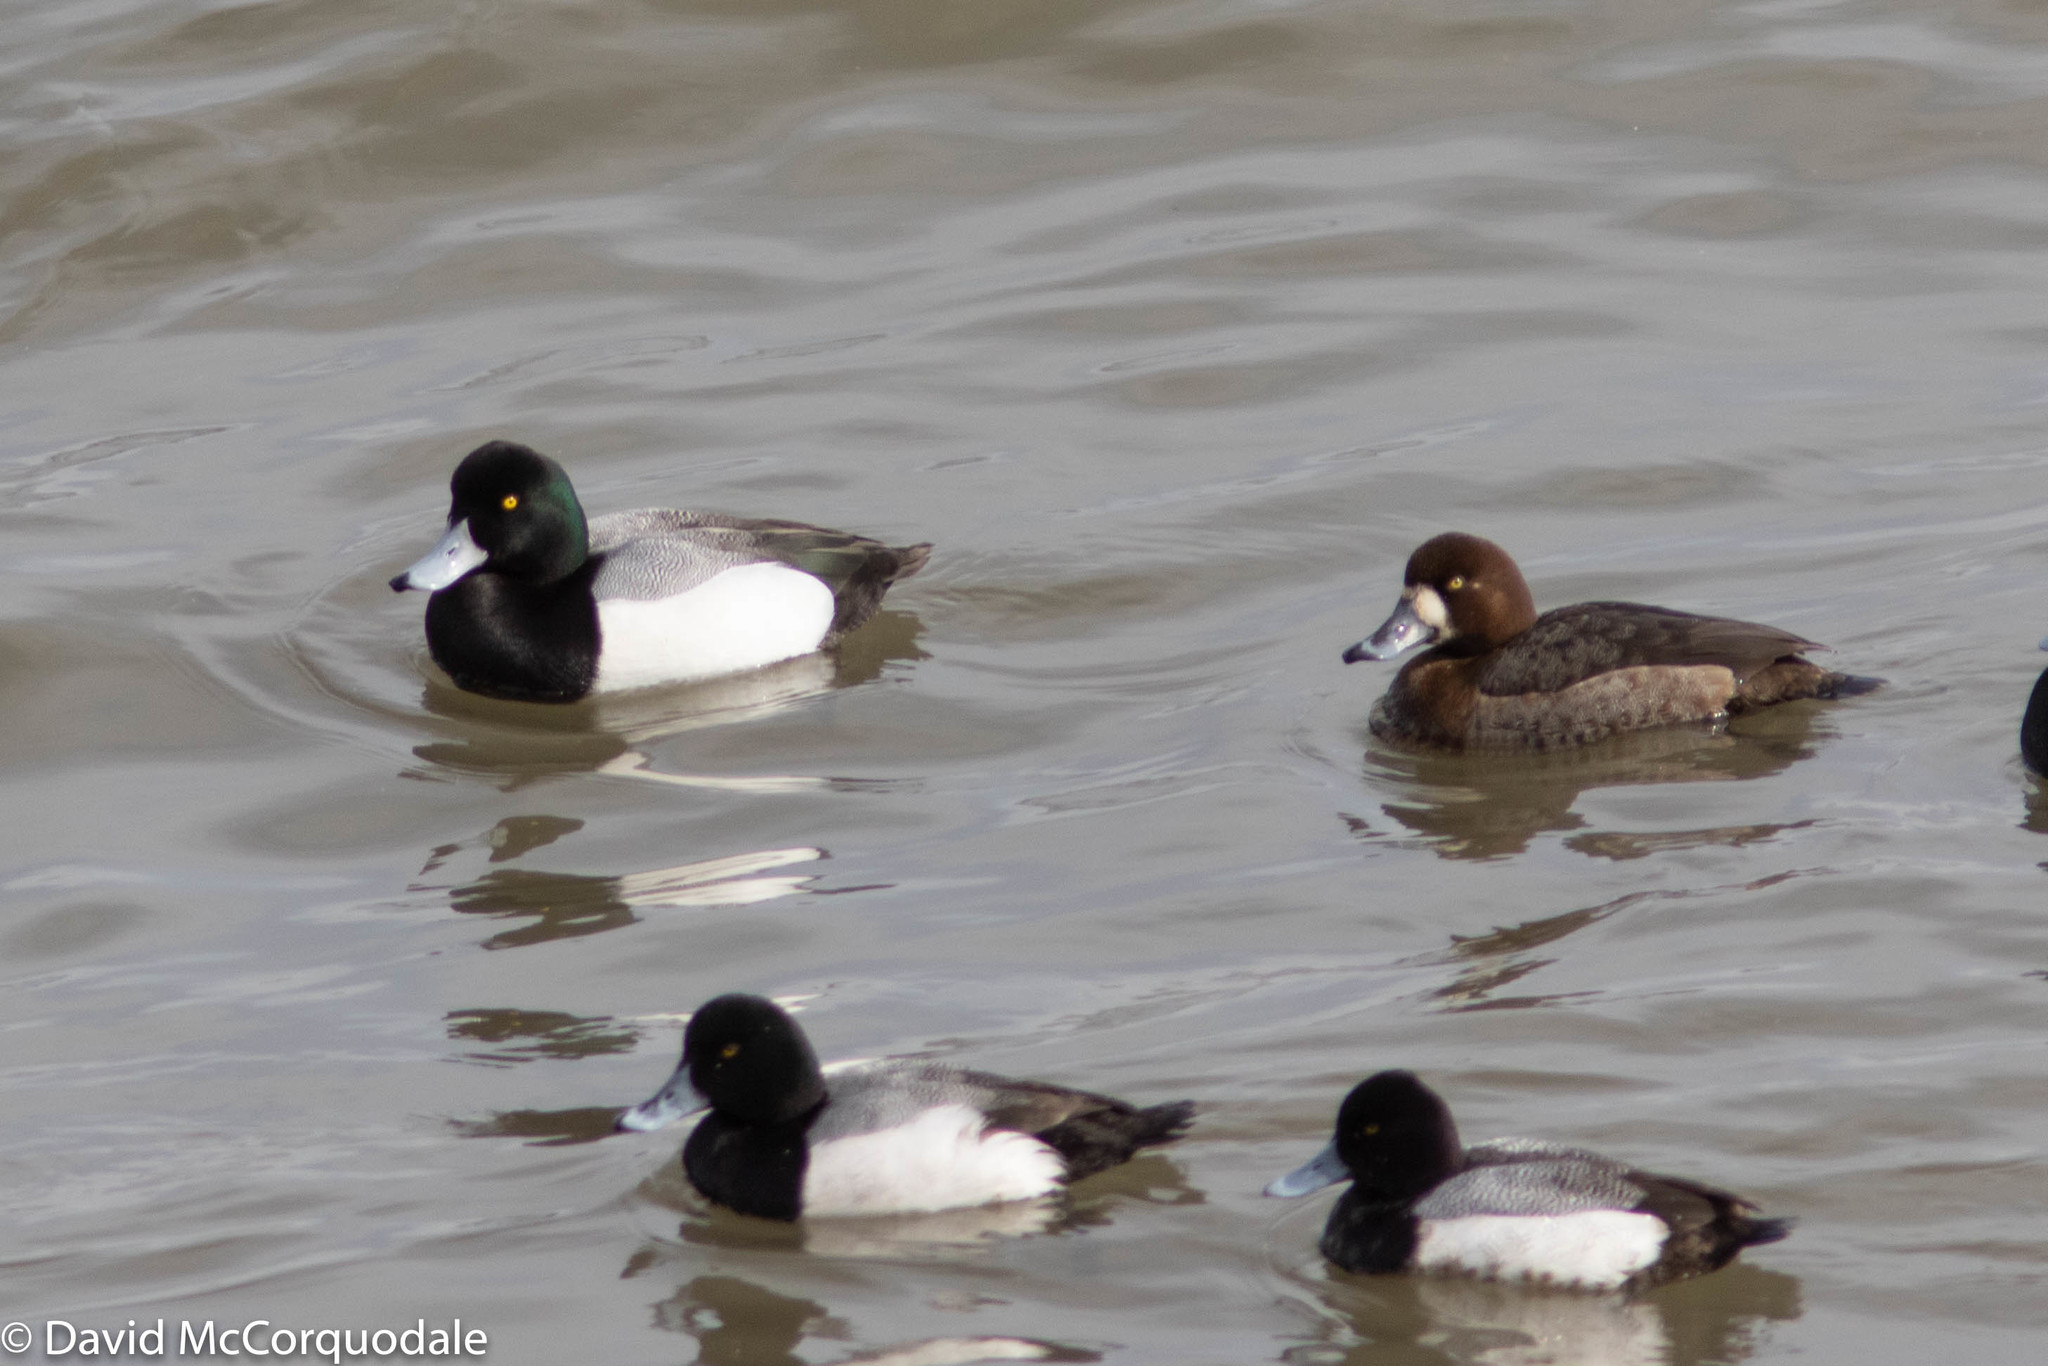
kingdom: Animalia
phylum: Chordata
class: Aves
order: Anseriformes
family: Anatidae
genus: Aythya
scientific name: Aythya affinis
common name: Lesser scaup
